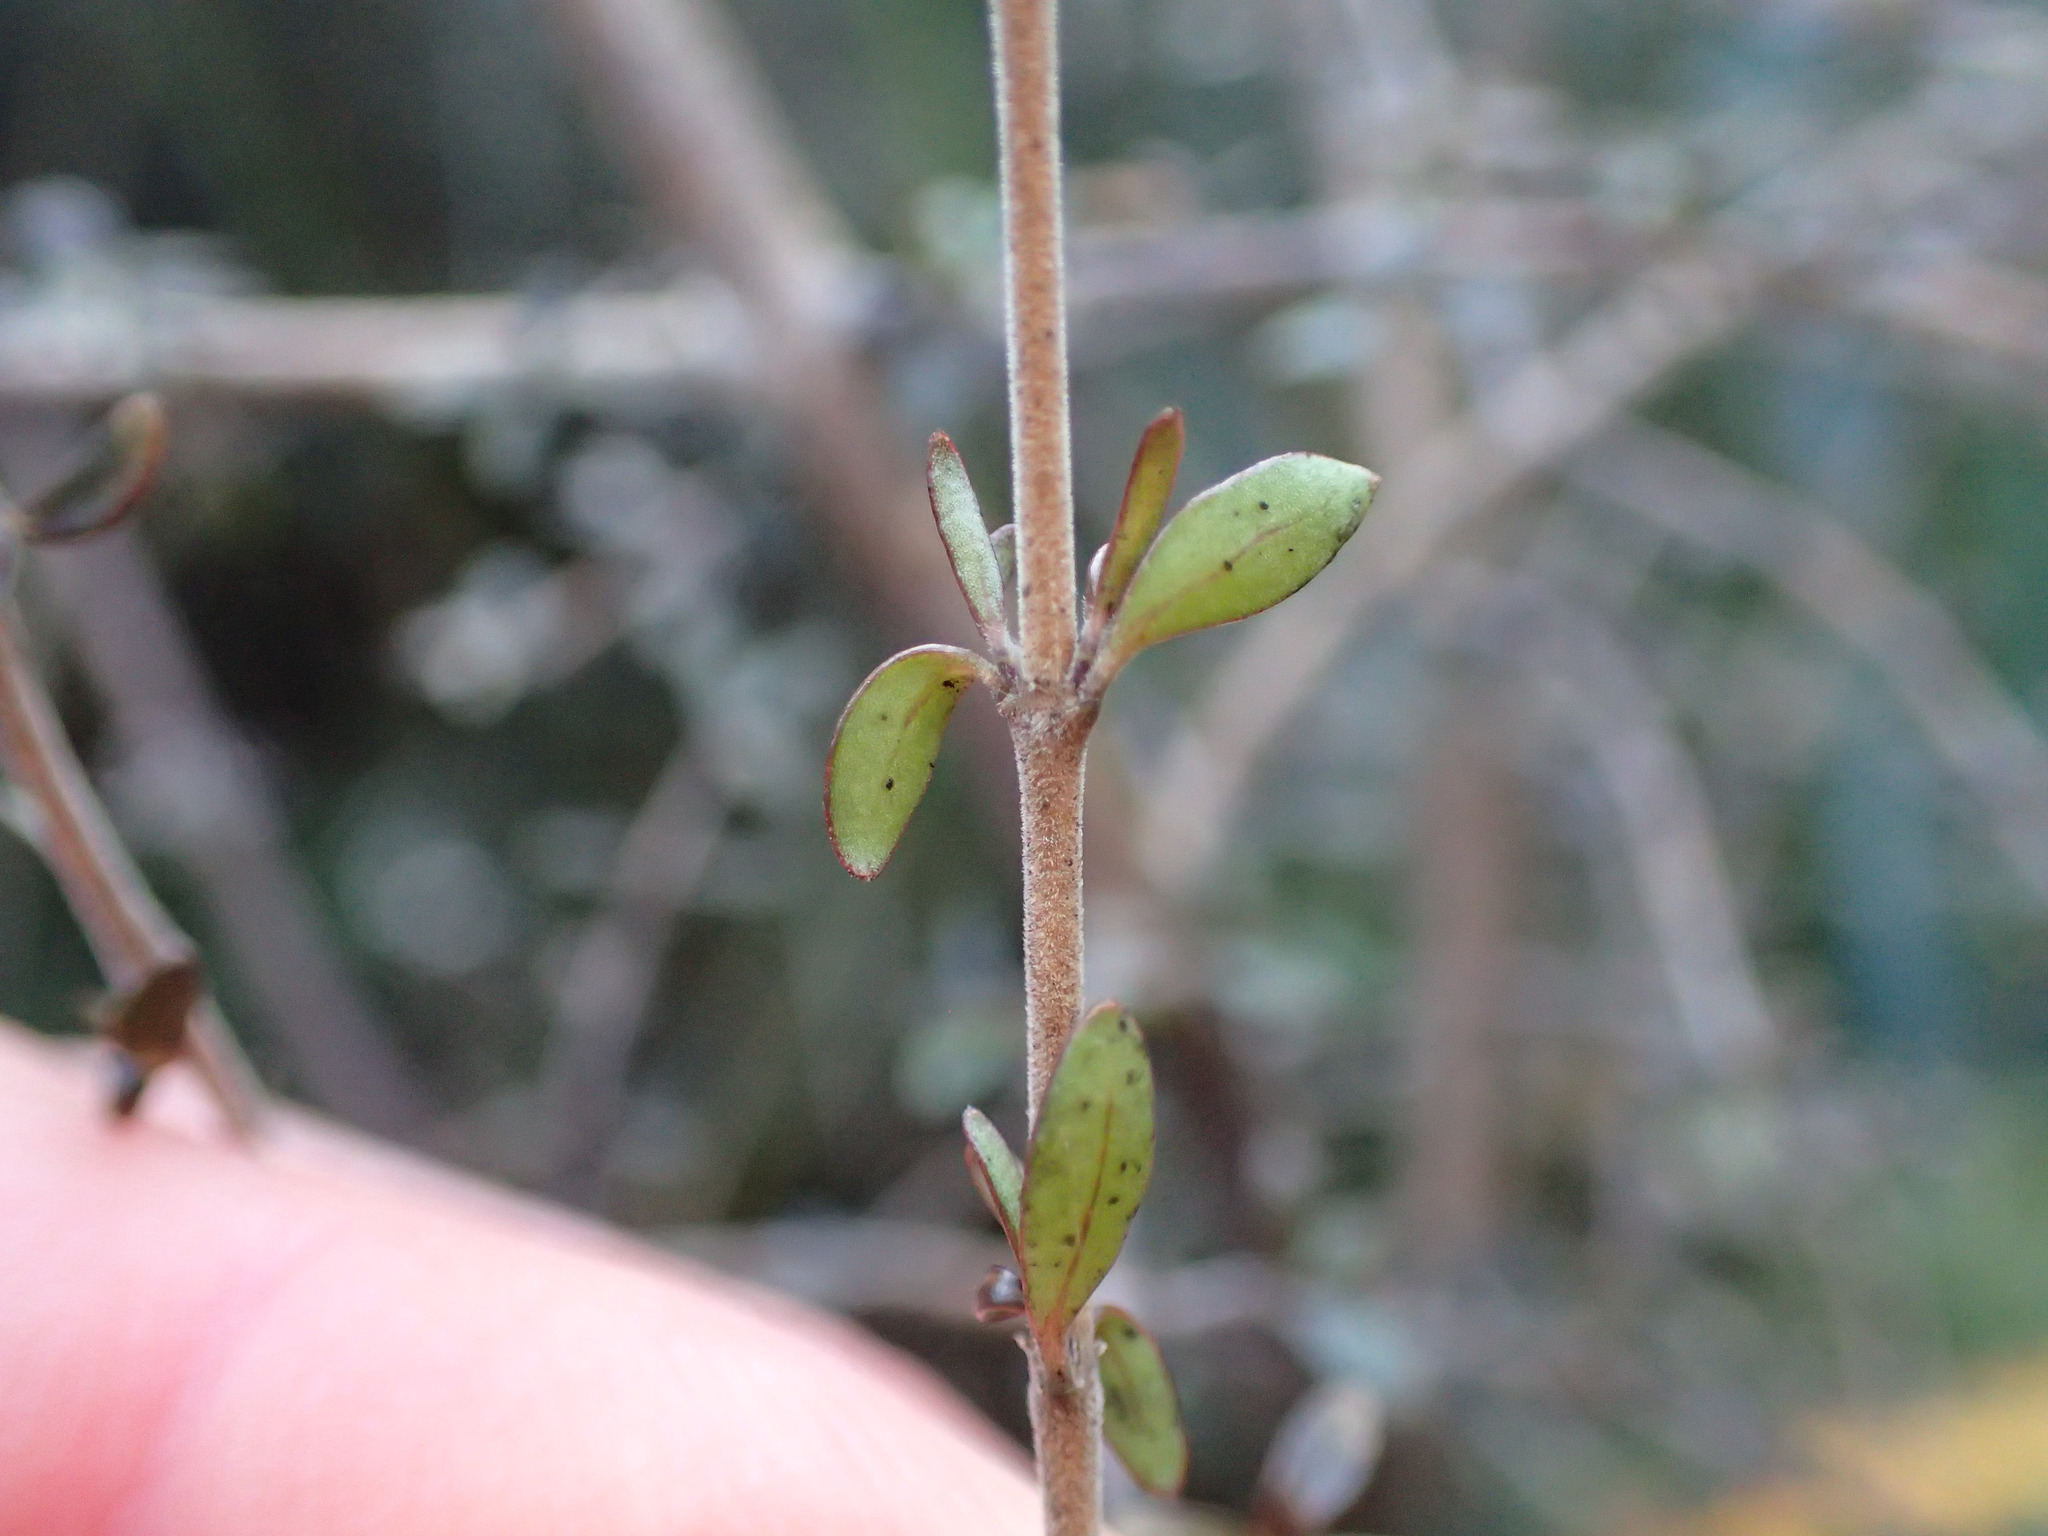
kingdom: Plantae
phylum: Tracheophyta
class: Magnoliopsida
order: Gentianales
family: Rubiaceae
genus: Coprosma
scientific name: Coprosma dumosa
